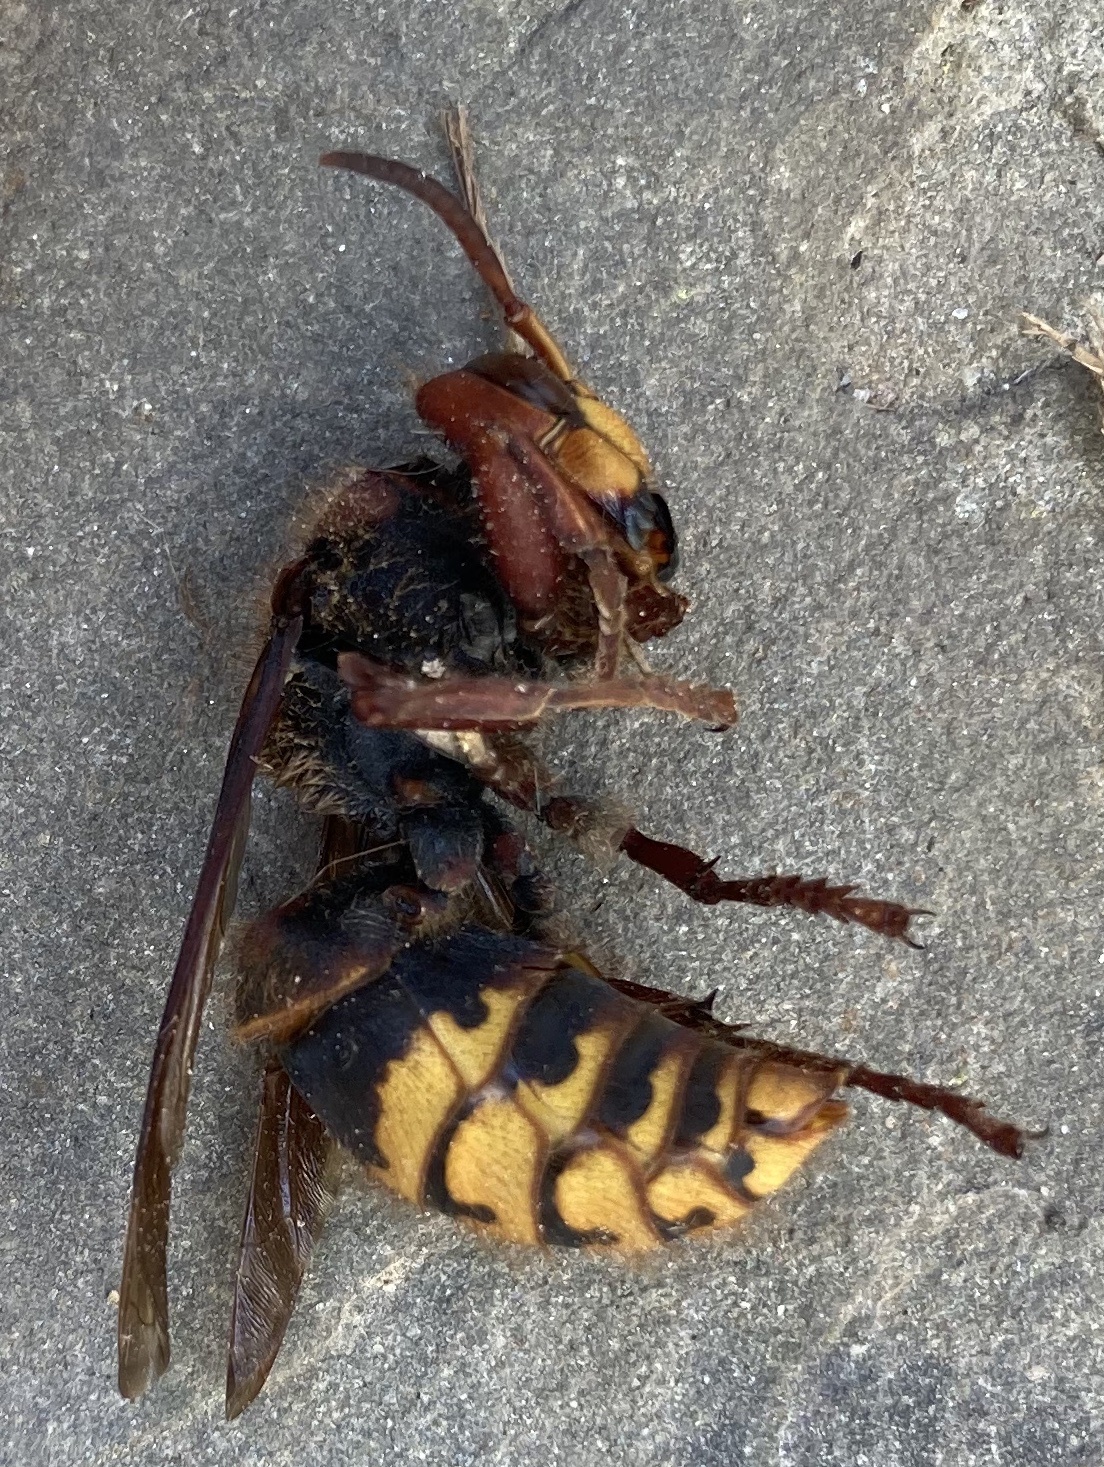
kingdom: Animalia
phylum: Arthropoda
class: Insecta
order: Hymenoptera
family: Vespidae
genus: Vespa
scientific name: Vespa crabro
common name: Hornet
